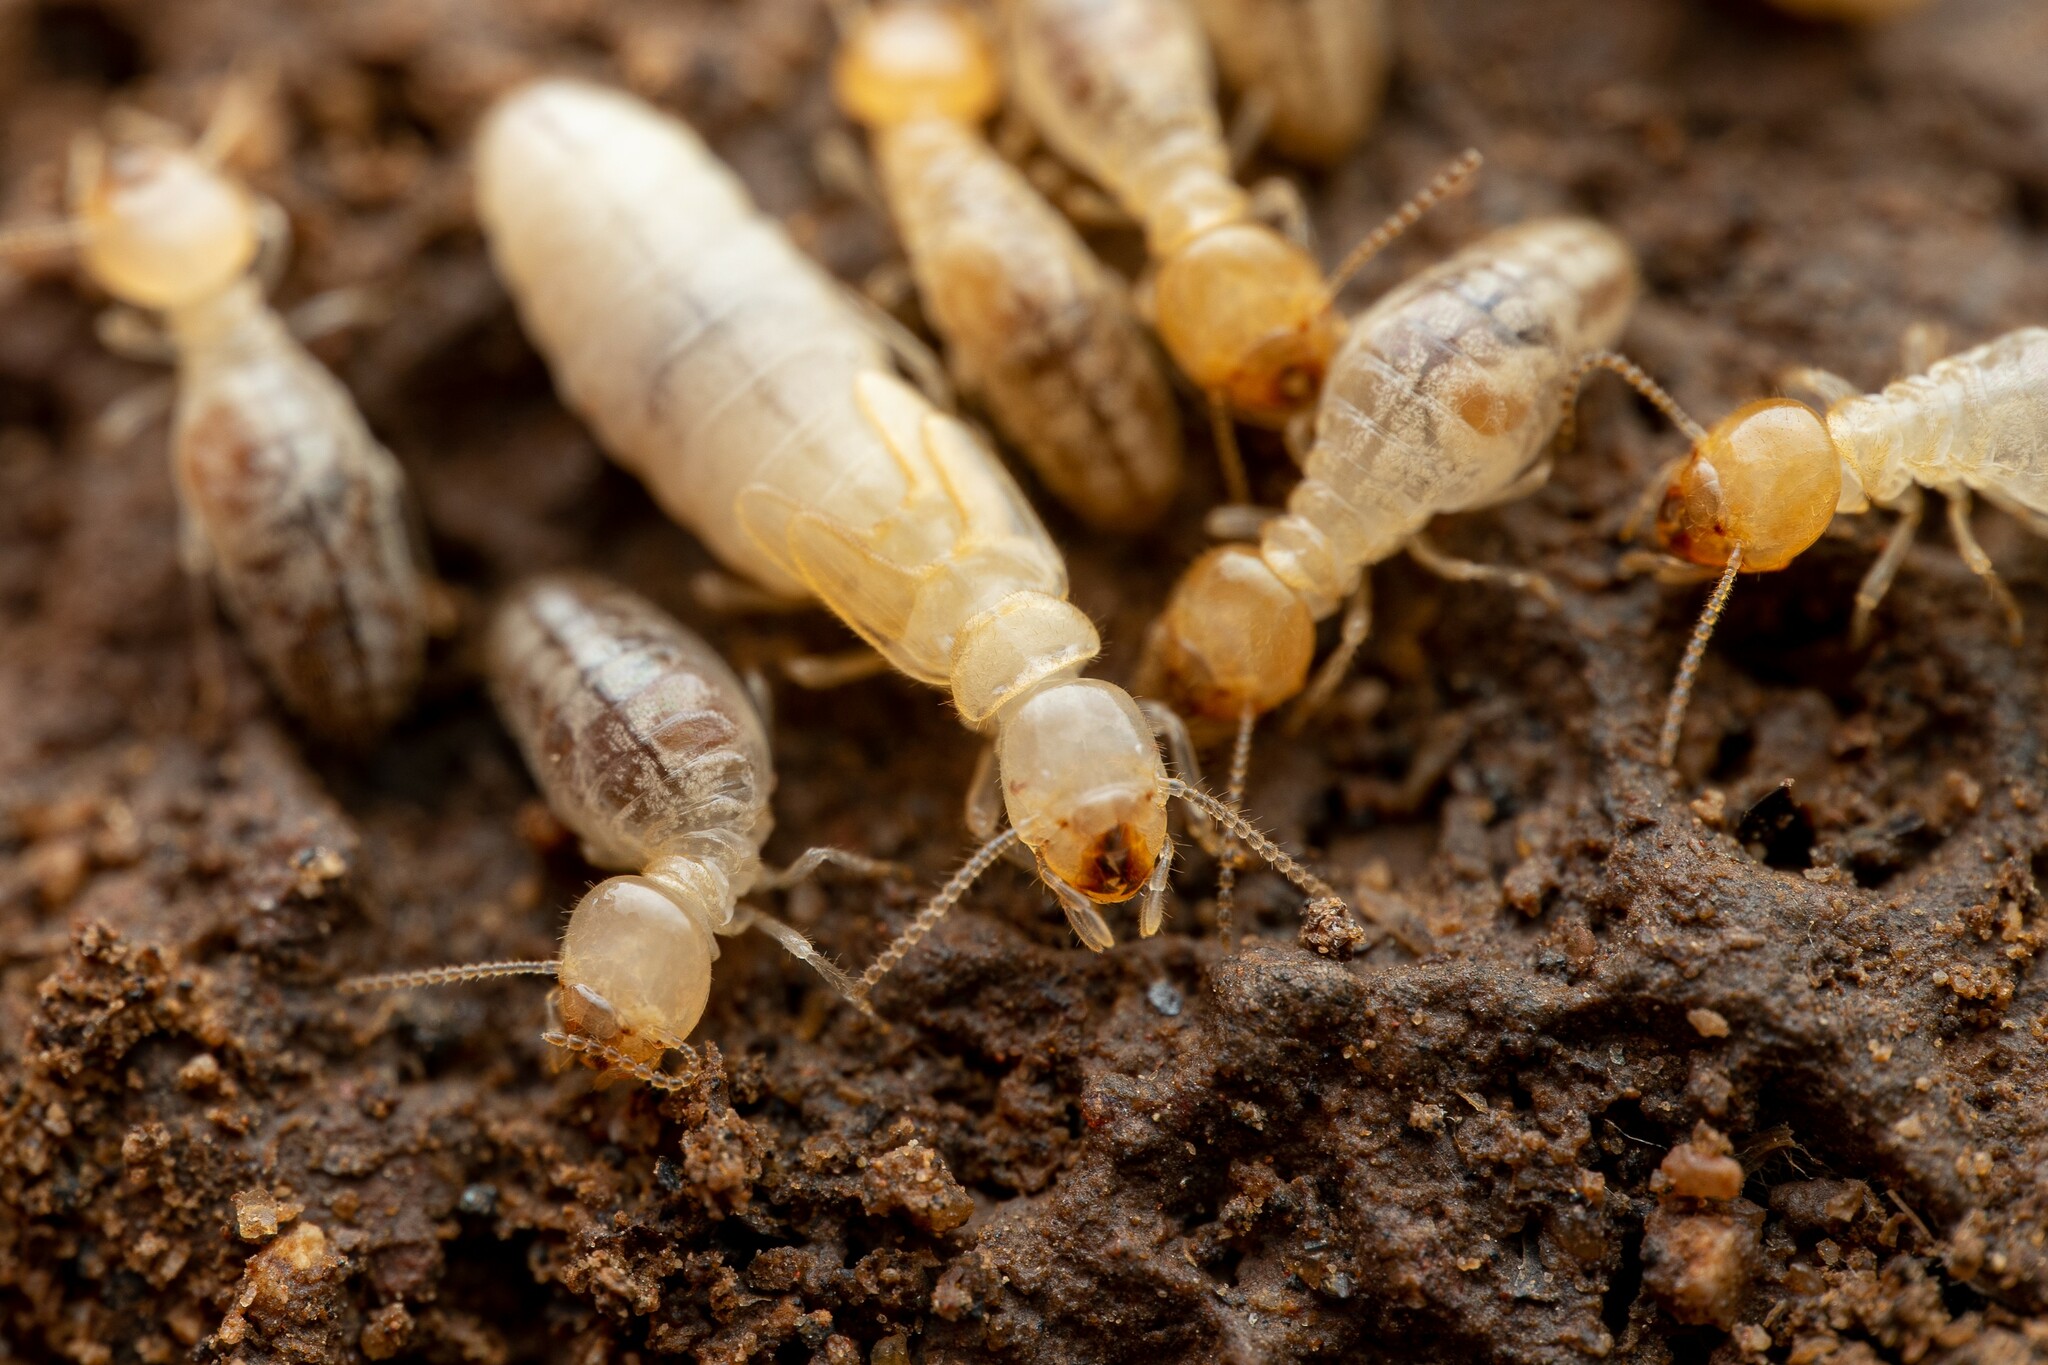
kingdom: Animalia
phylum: Arthropoda
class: Insecta
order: Blattodea
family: Termitidae
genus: Gnathamitermes
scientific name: Gnathamitermes
